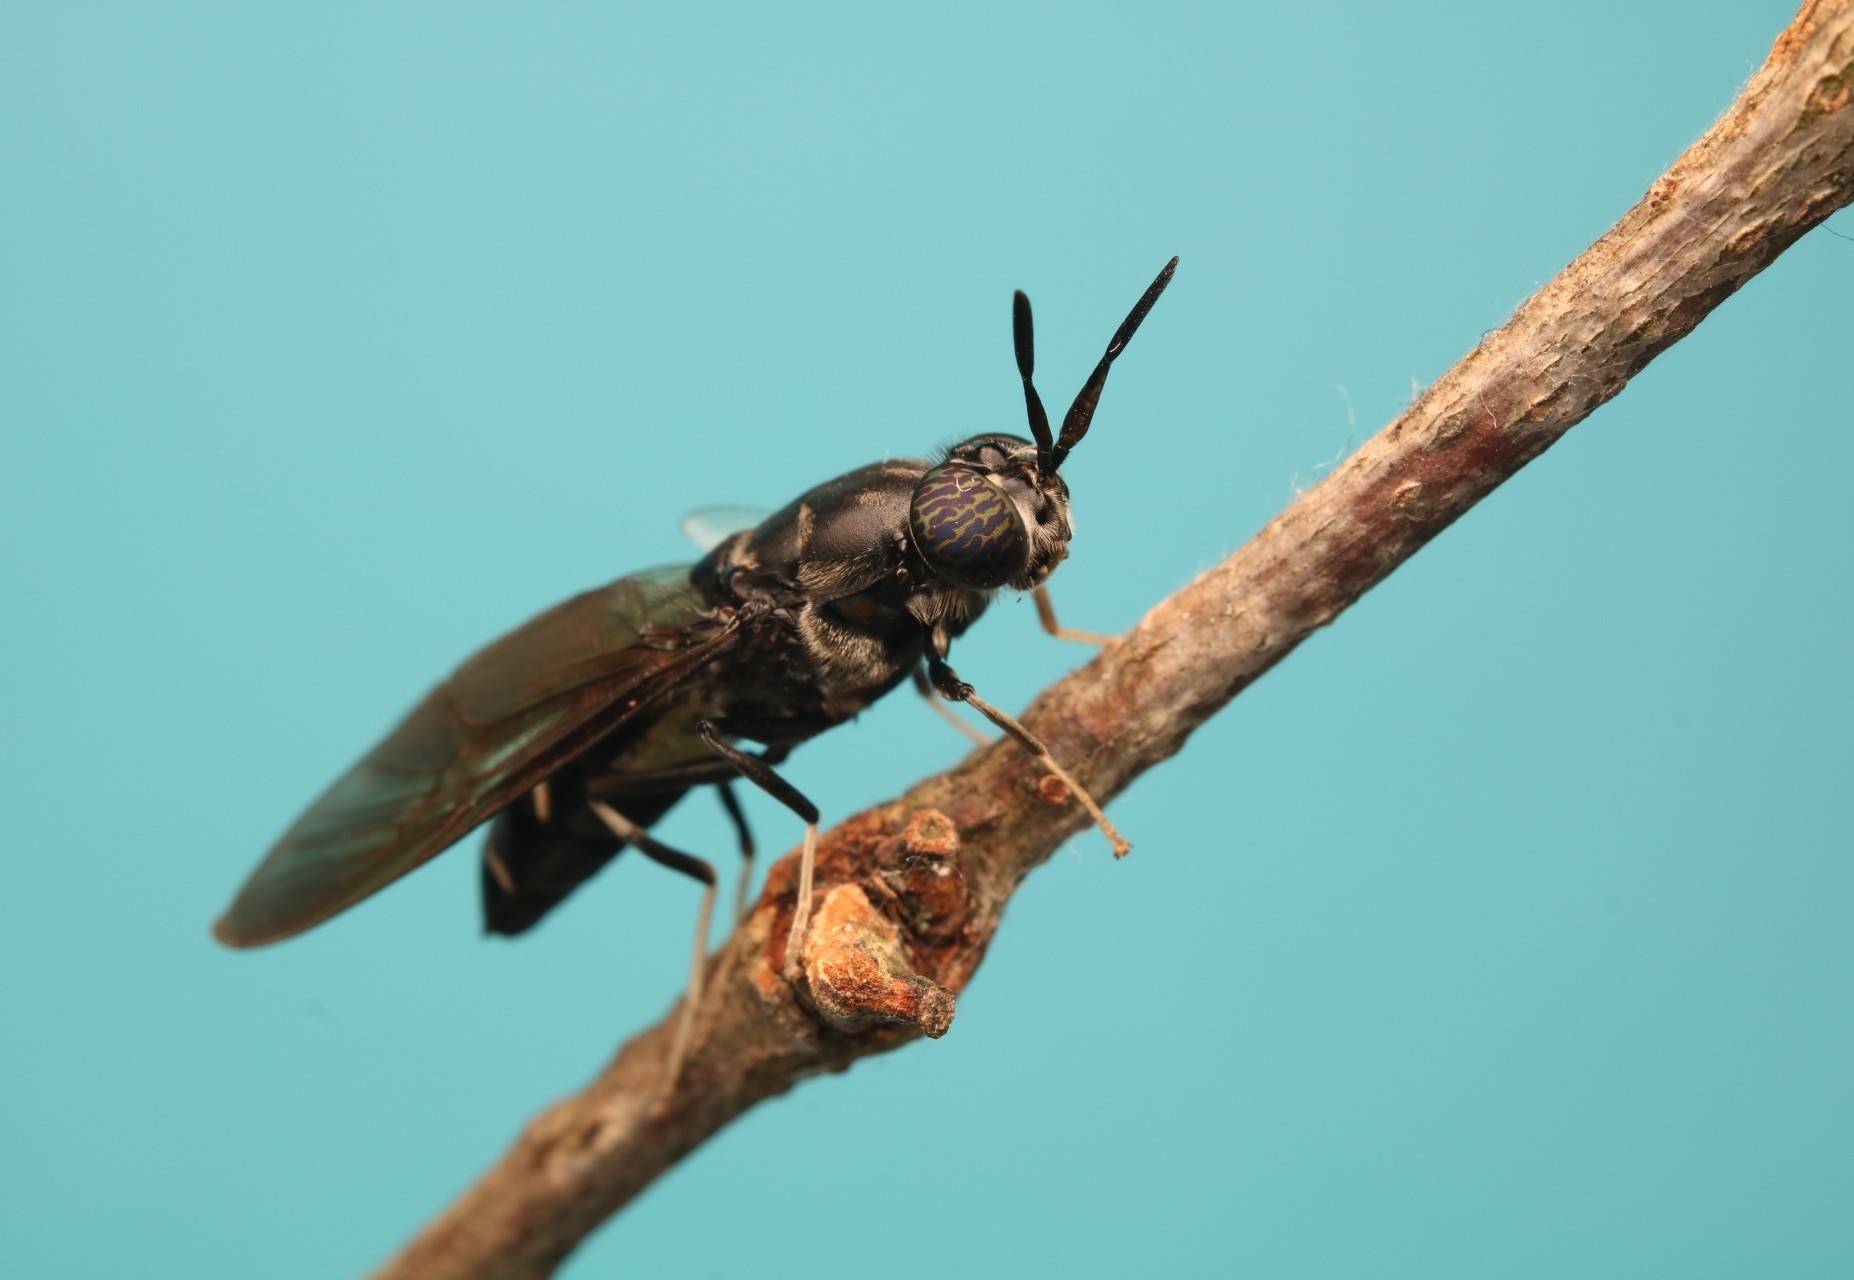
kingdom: Animalia
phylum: Arthropoda
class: Insecta
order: Diptera
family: Stratiomyidae
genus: Hermetia
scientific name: Hermetia illucens
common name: Black soldier fly
